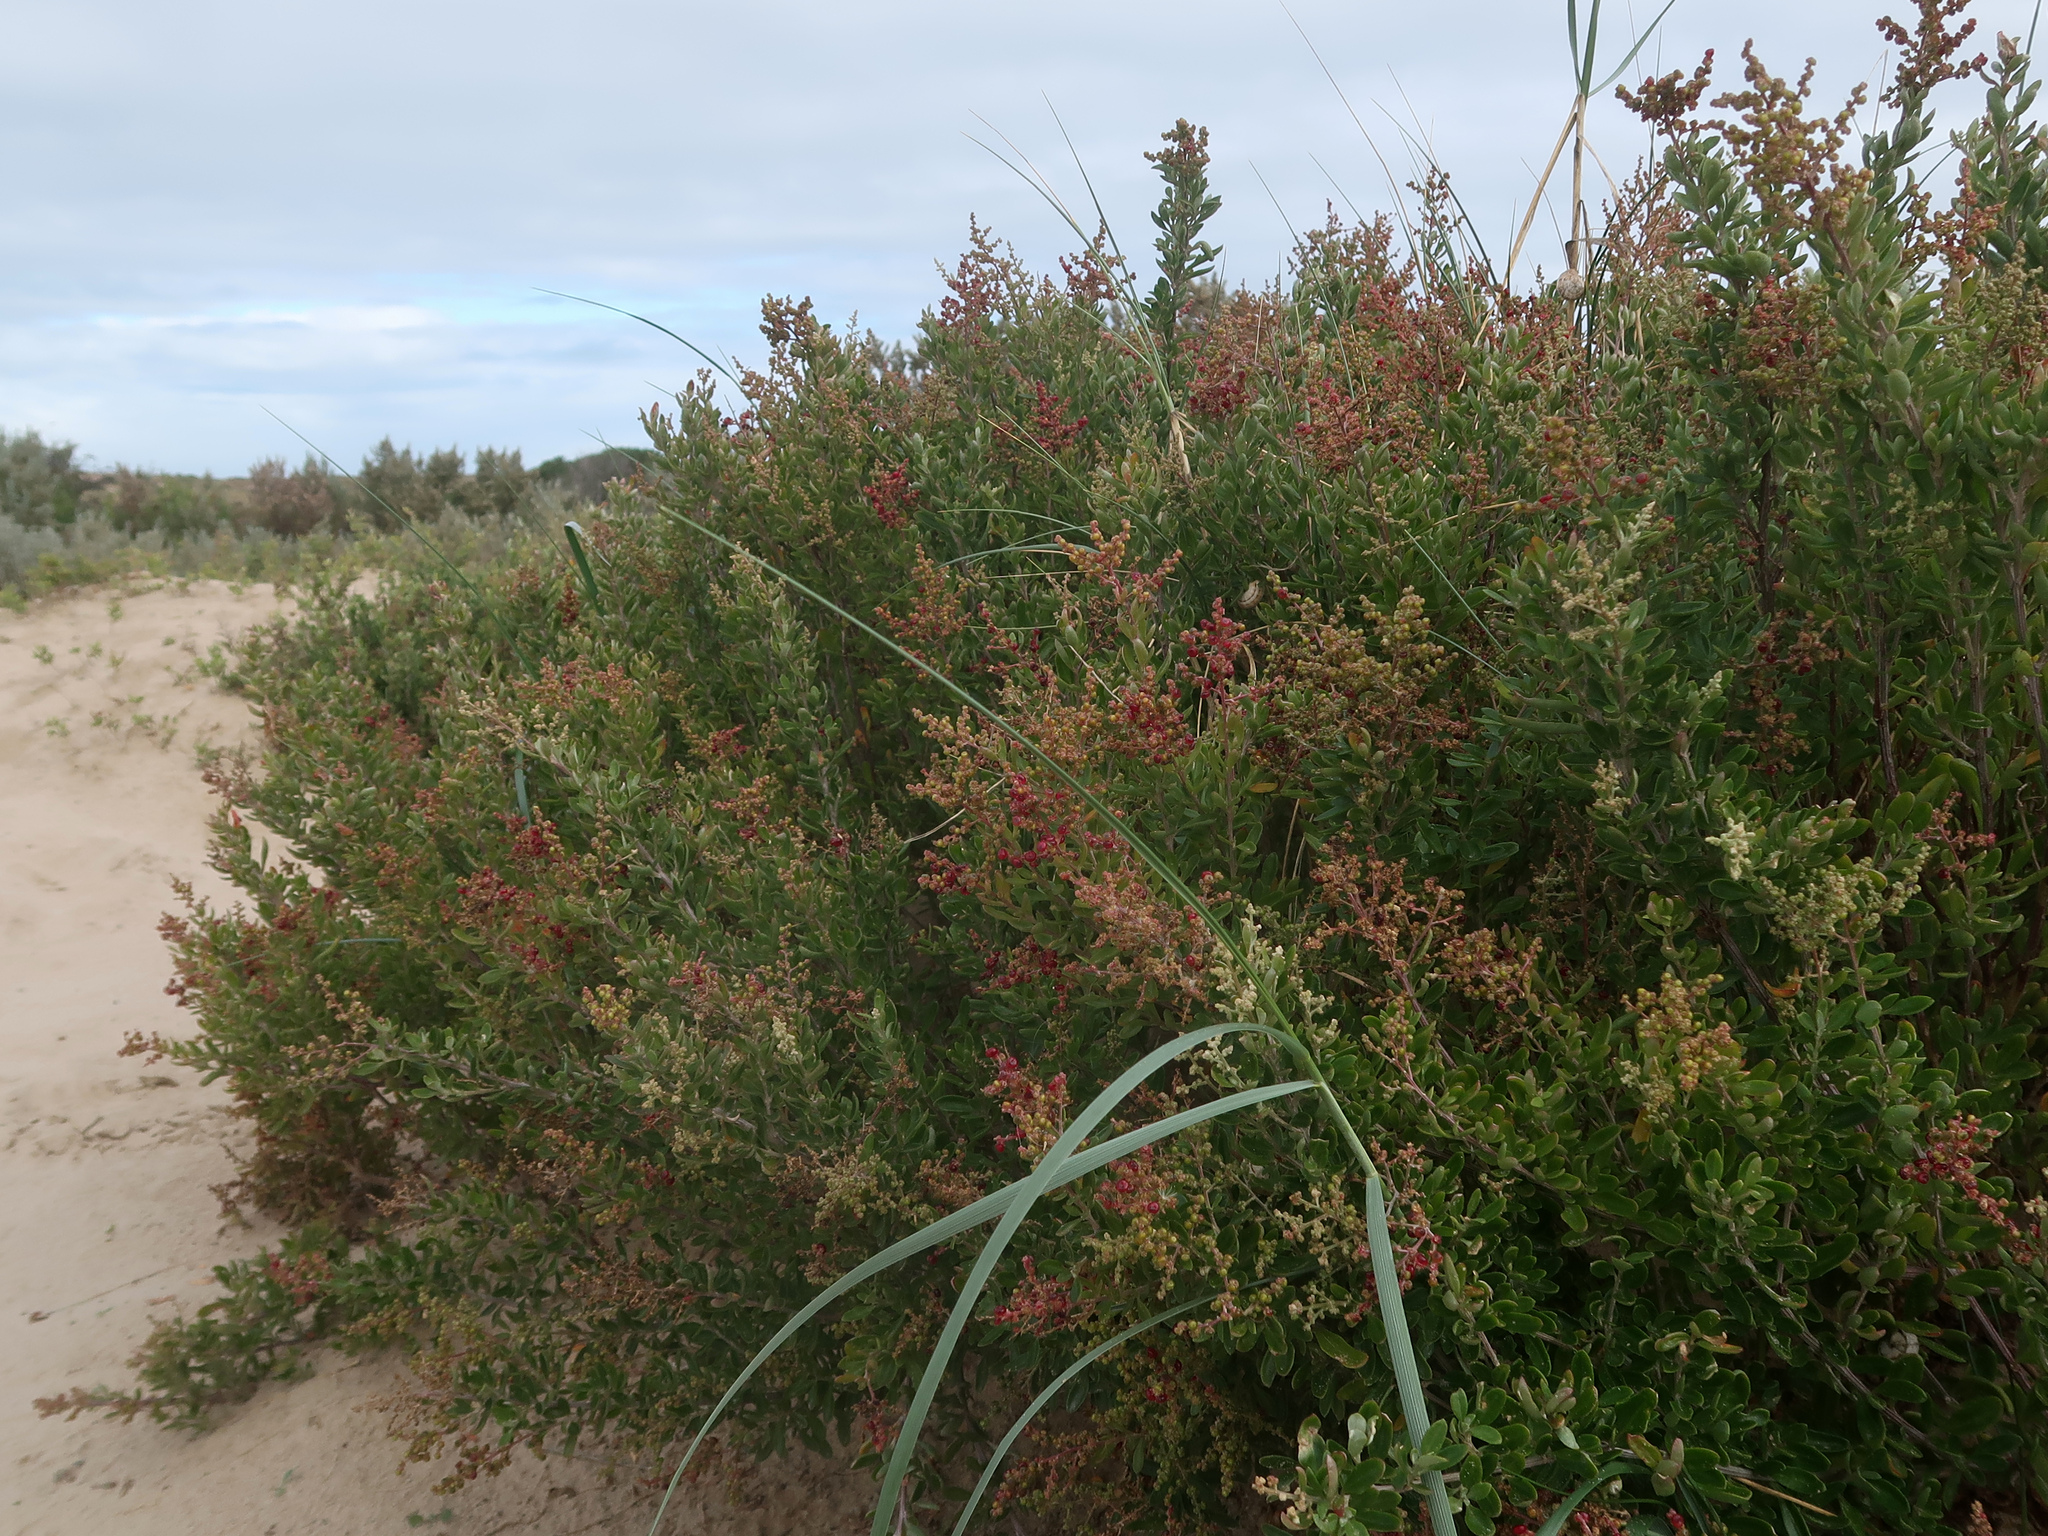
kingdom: Plantae
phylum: Tracheophyta
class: Magnoliopsida
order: Caryophyllales
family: Amaranthaceae
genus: Chenopodium
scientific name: Chenopodium candolleanum
